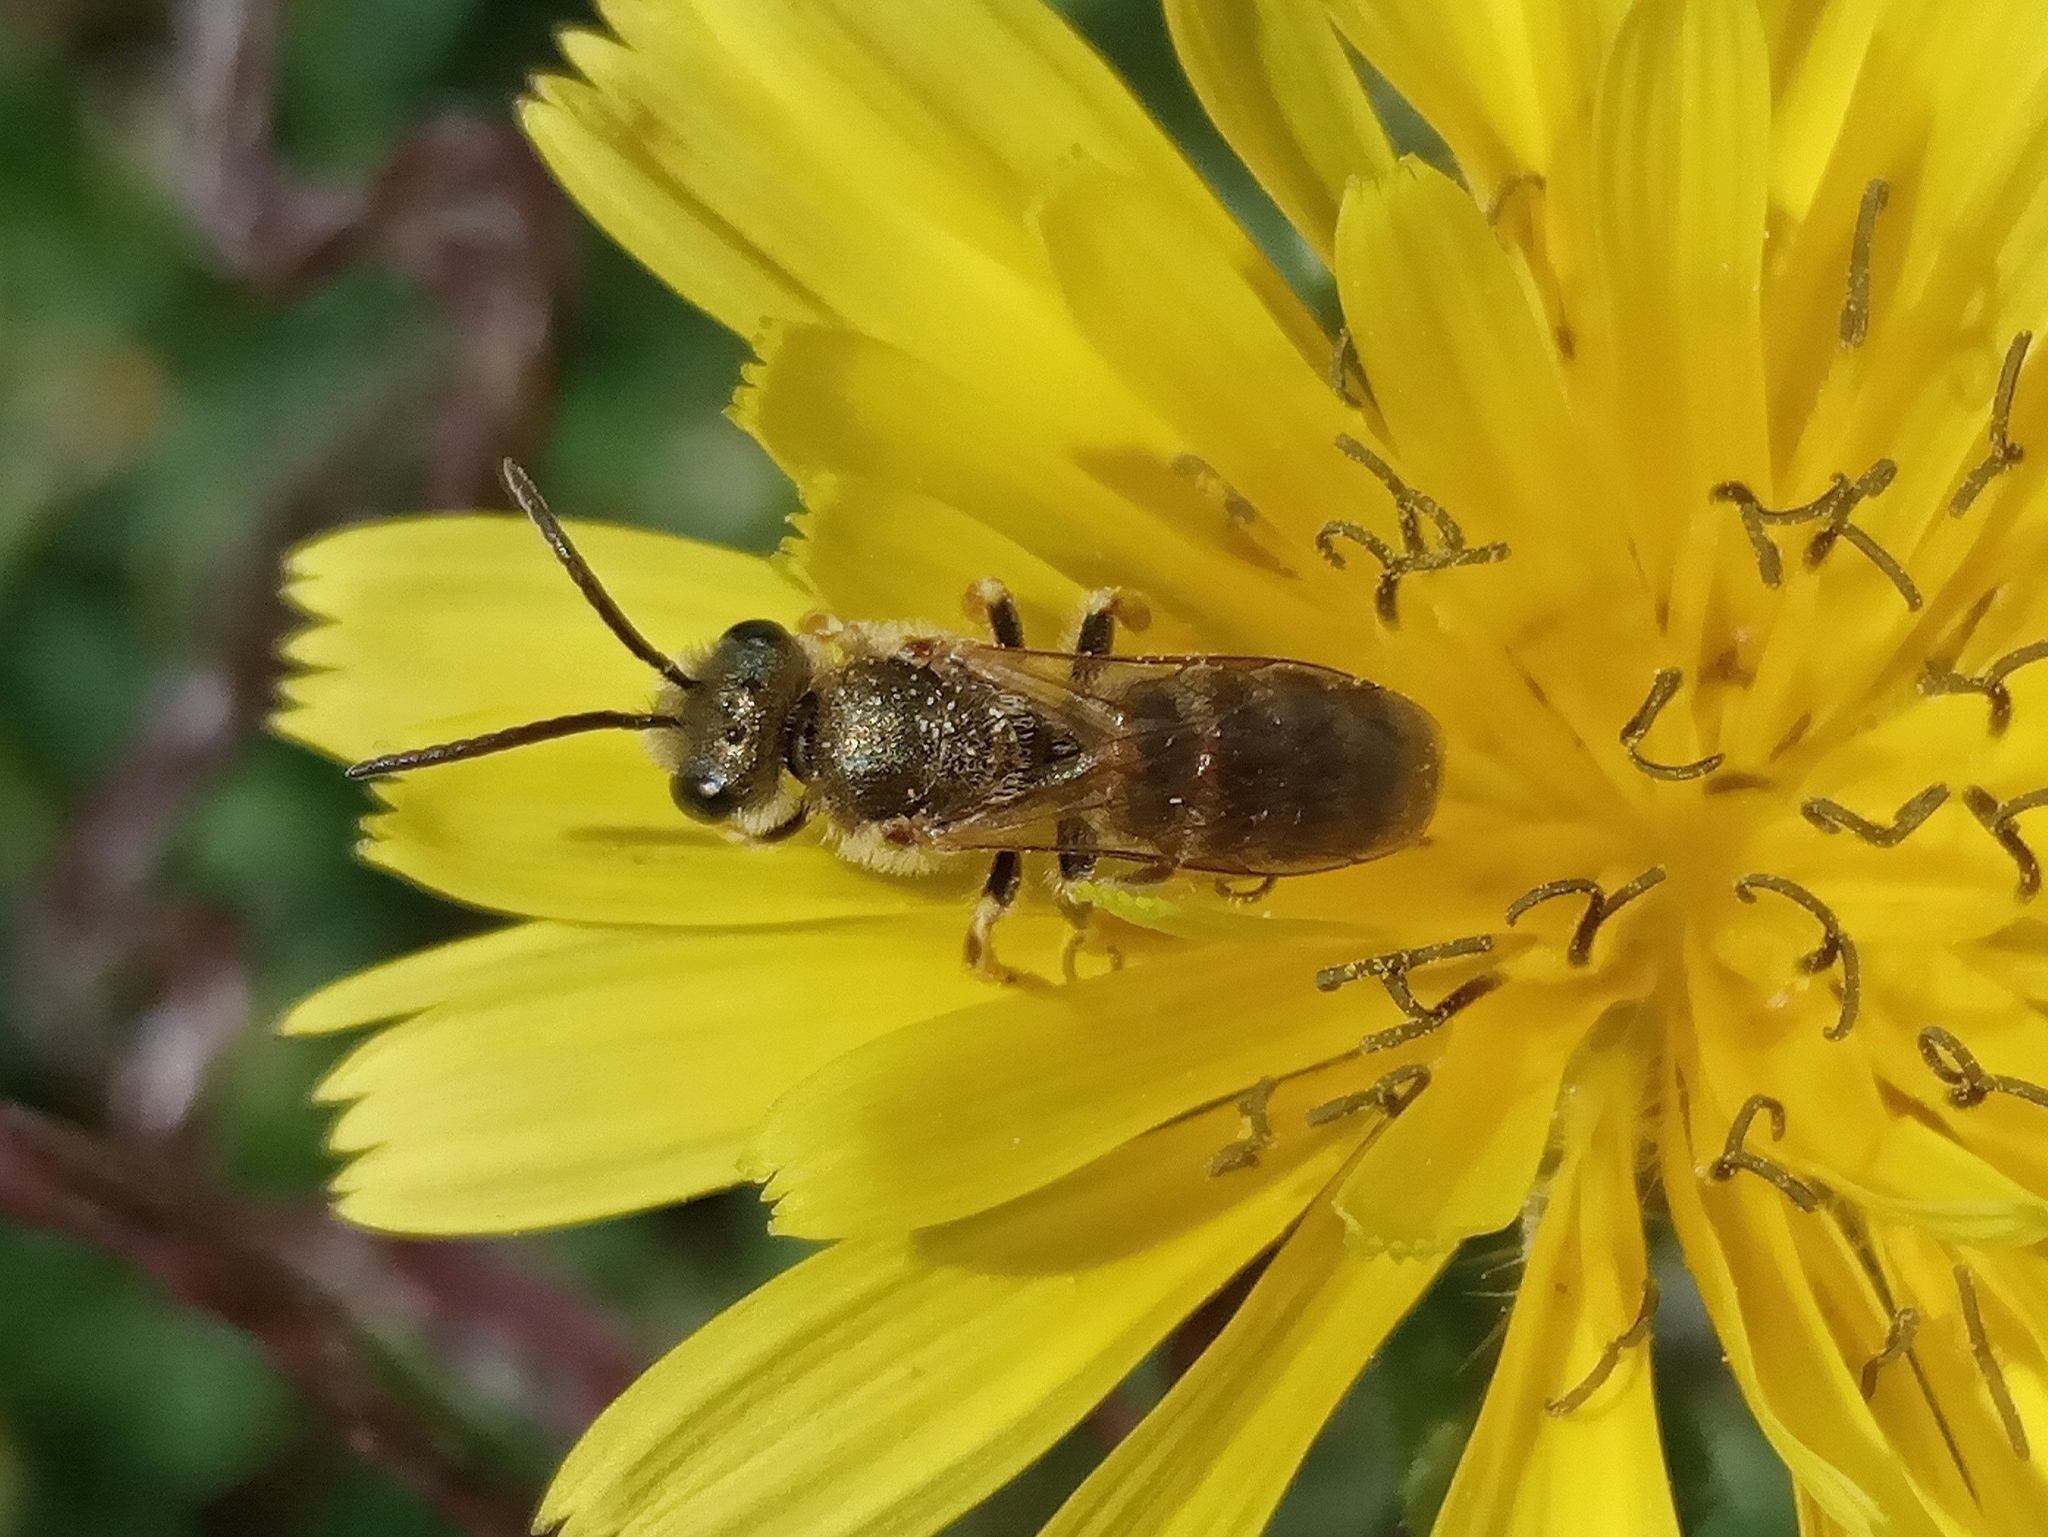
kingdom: Animalia
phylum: Arthropoda
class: Insecta
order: Hymenoptera
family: Halictidae
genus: Seladonia
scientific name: Seladonia
